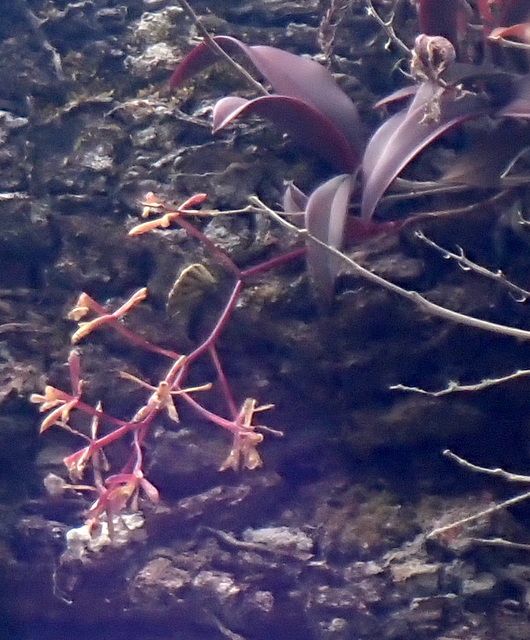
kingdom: Plantae
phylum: Tracheophyta
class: Liliopsida
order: Asparagales
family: Orchidaceae
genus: Epidendrum
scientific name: Epidendrum conopseum
